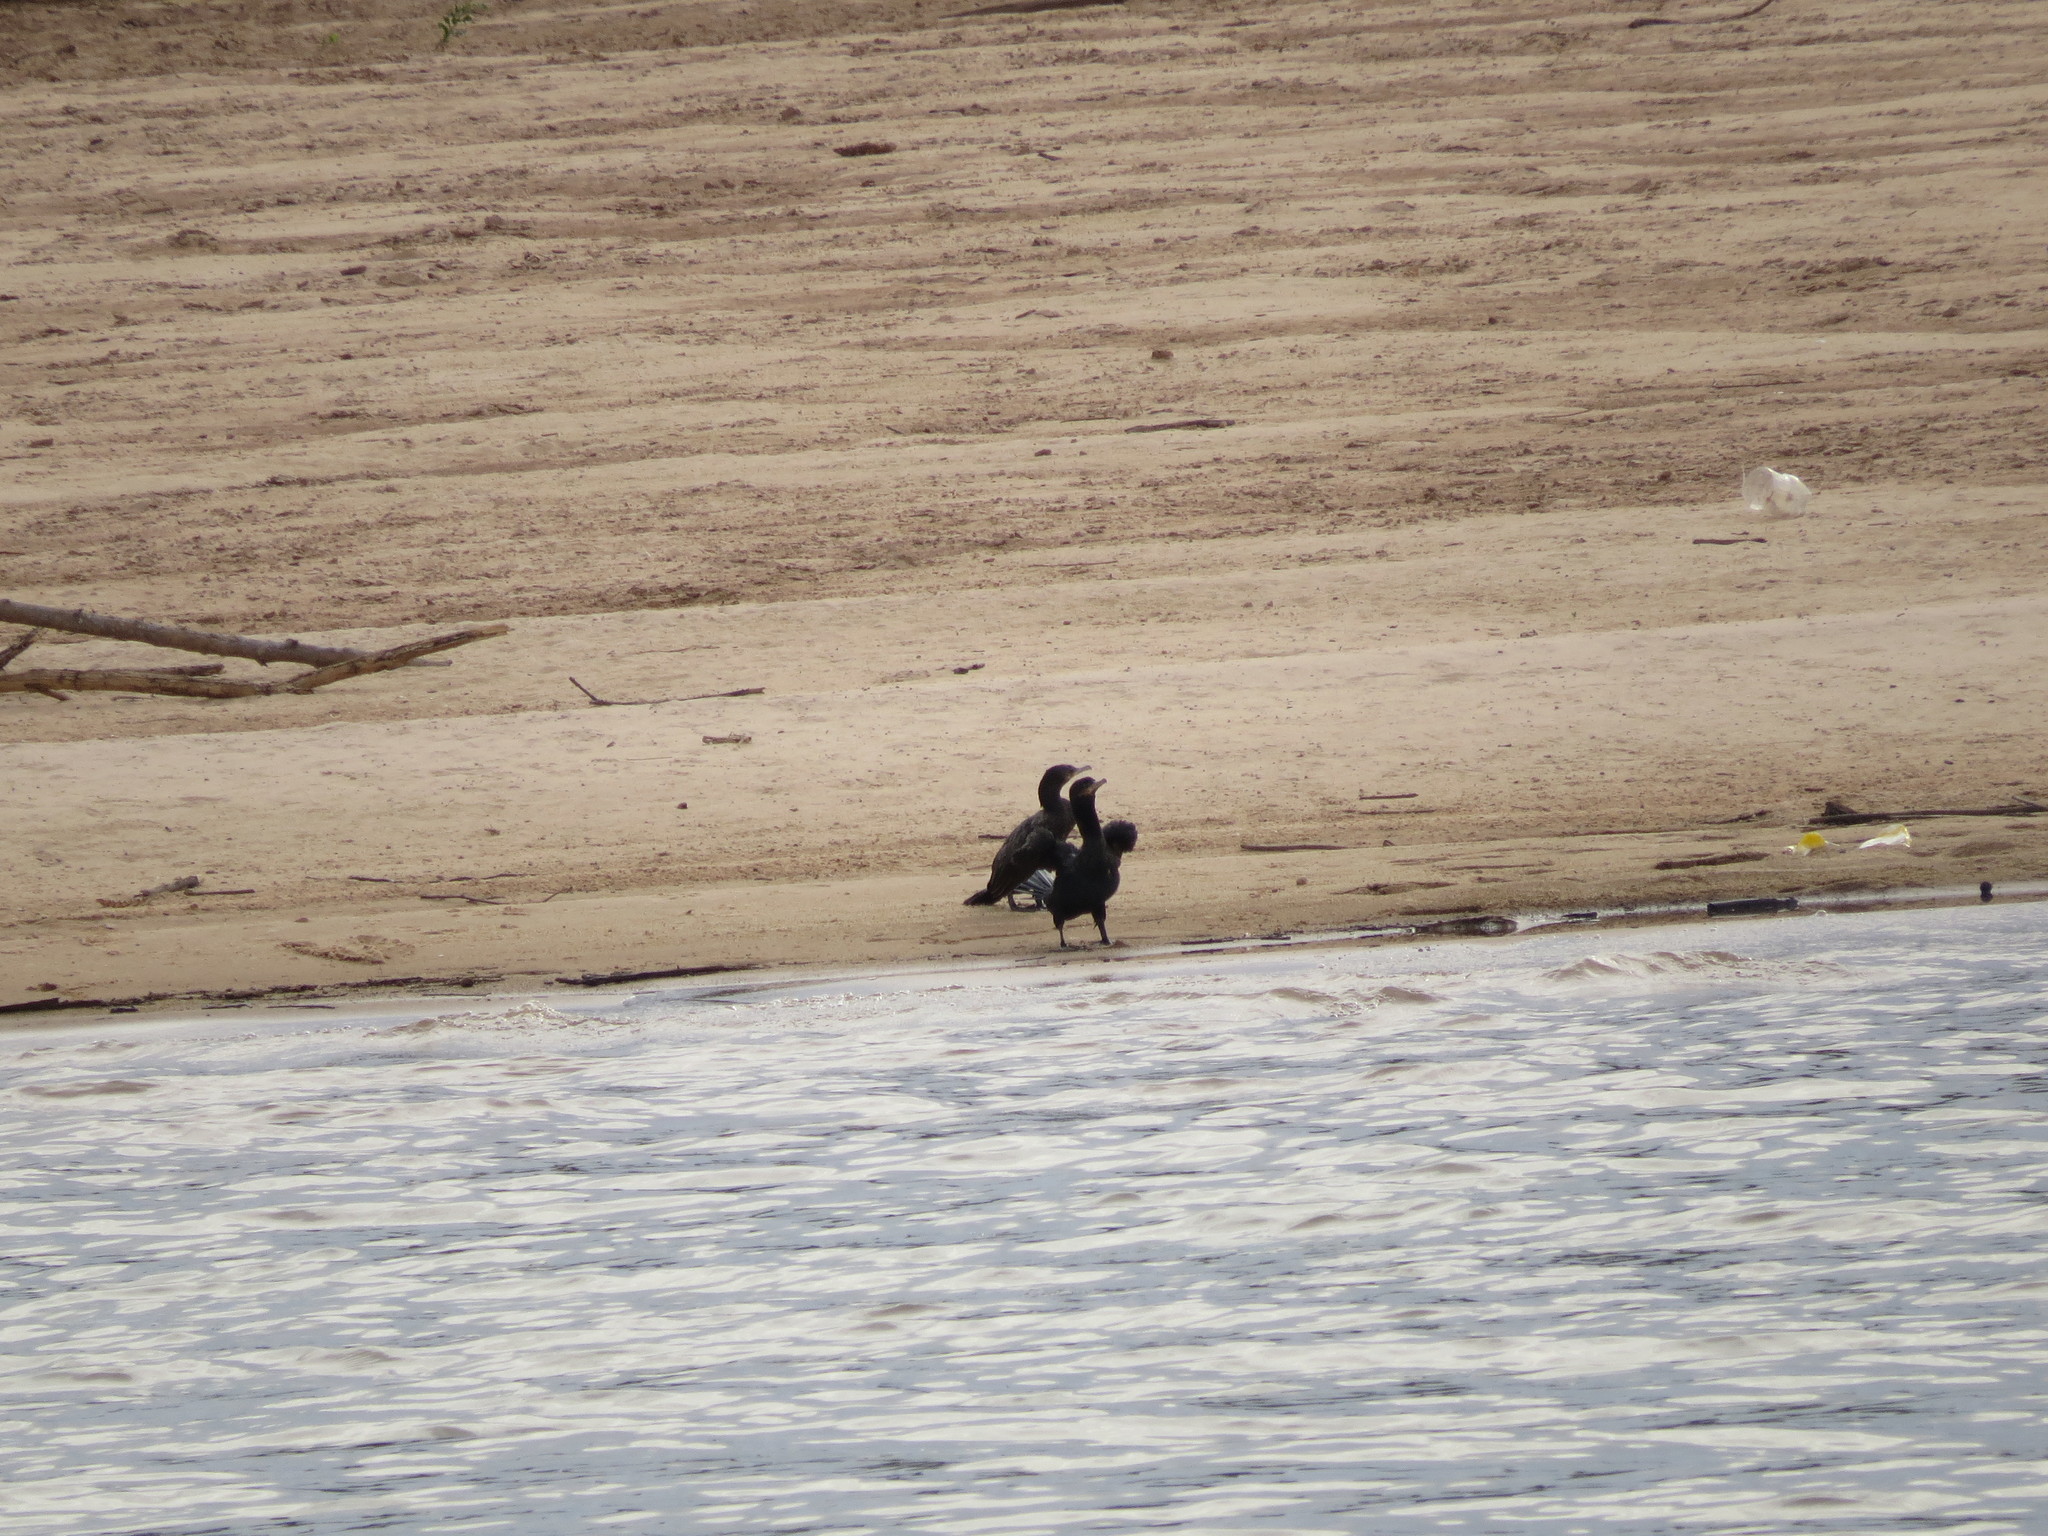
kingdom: Animalia
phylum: Chordata
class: Aves
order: Suliformes
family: Phalacrocoracidae
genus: Phalacrocorax
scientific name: Phalacrocorax brasilianus
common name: Neotropic cormorant
